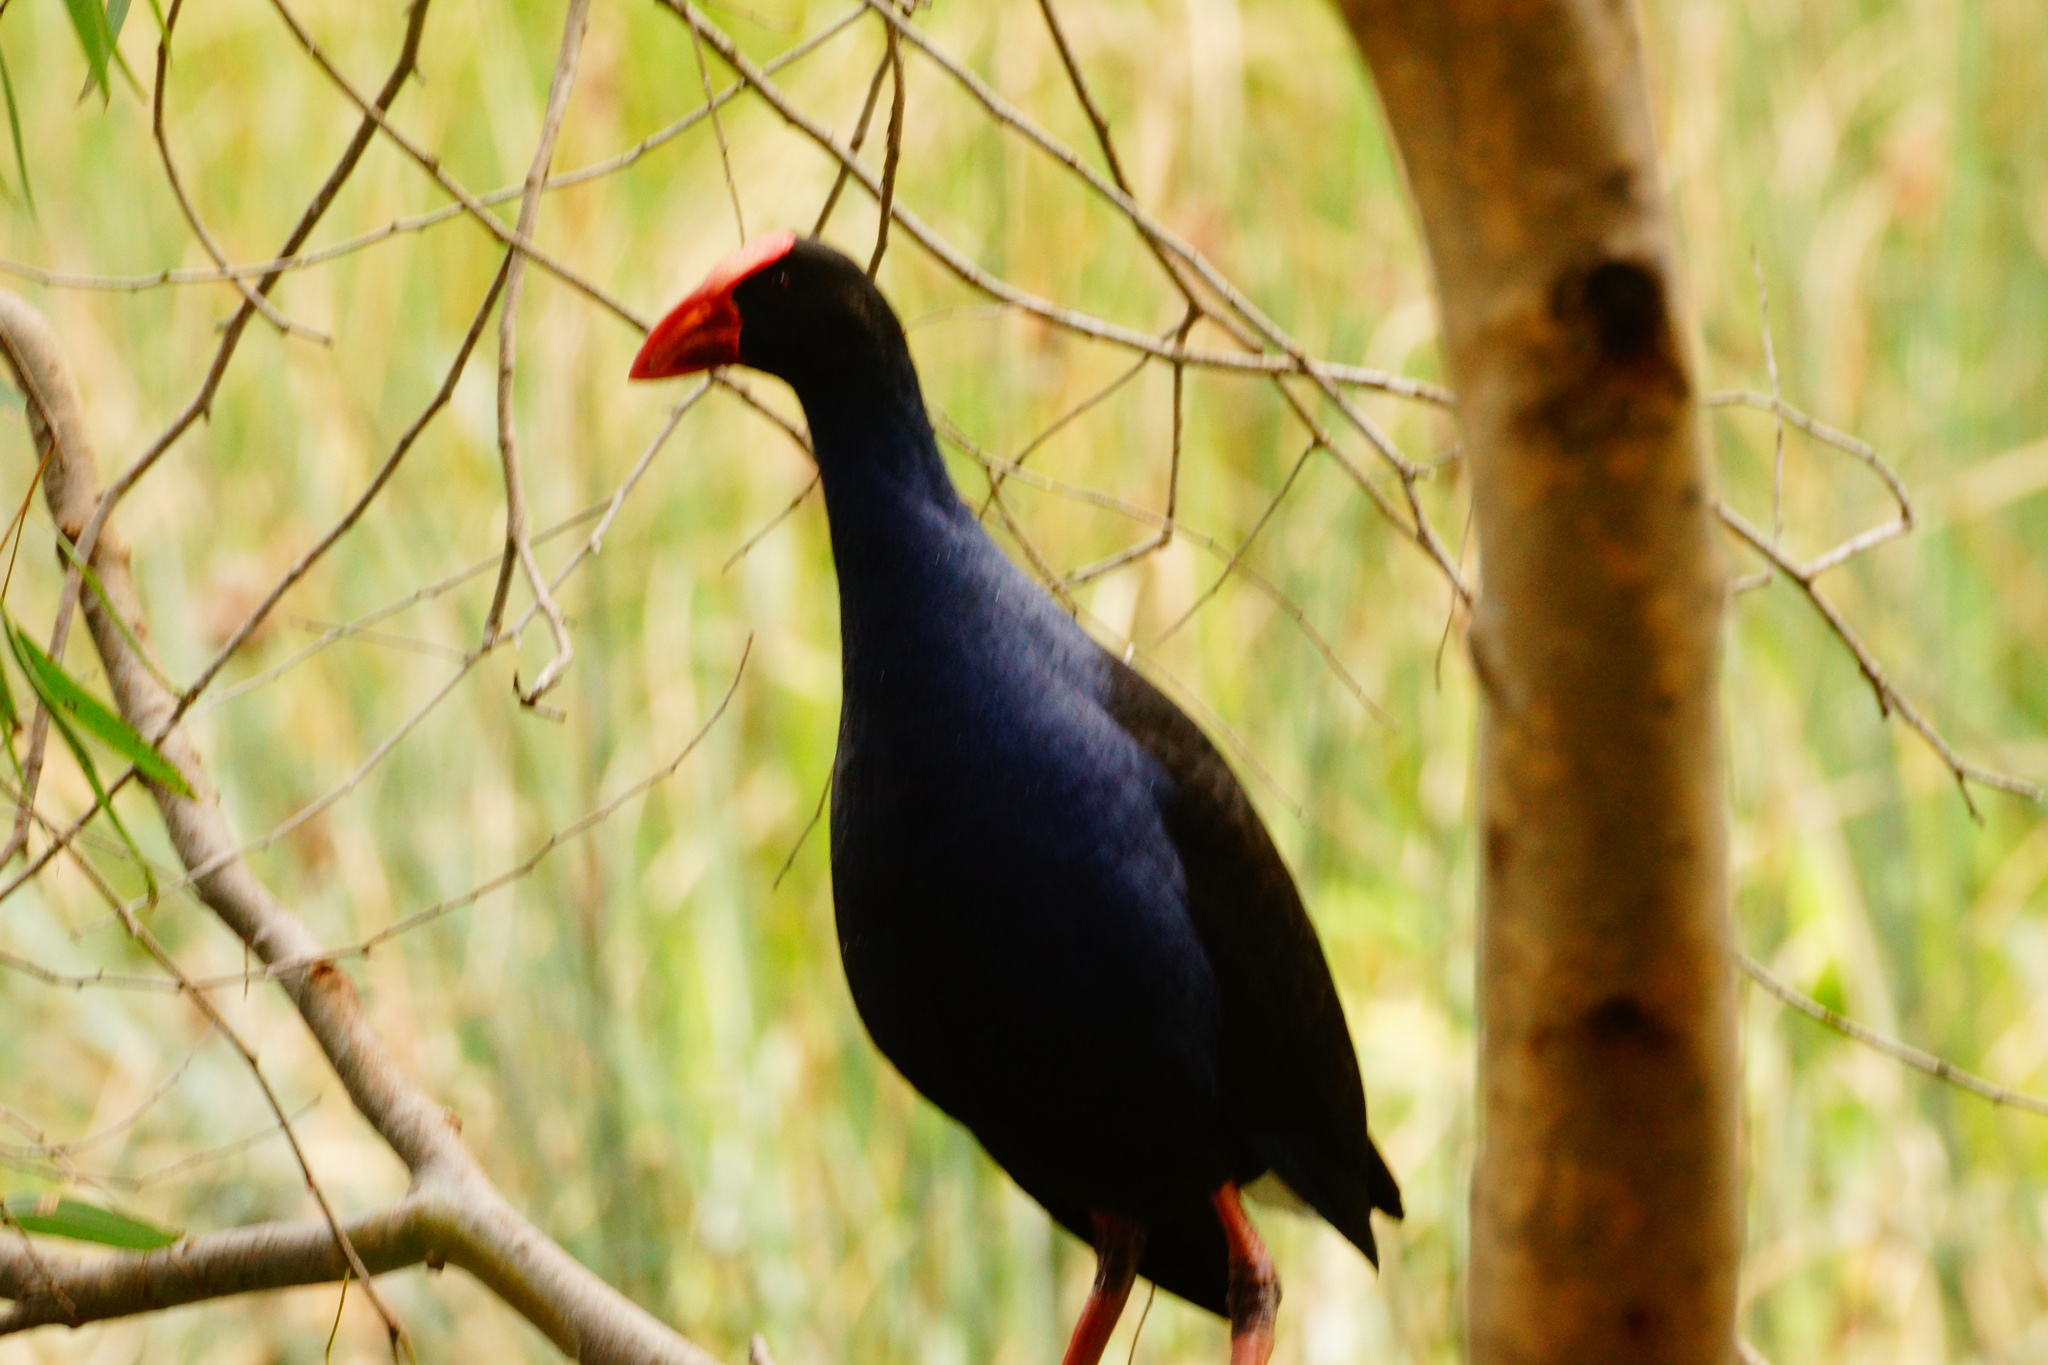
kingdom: Animalia
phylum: Chordata
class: Aves
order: Gruiformes
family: Rallidae
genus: Porphyrio
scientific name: Porphyrio melanotus
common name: Australasian swamphen
